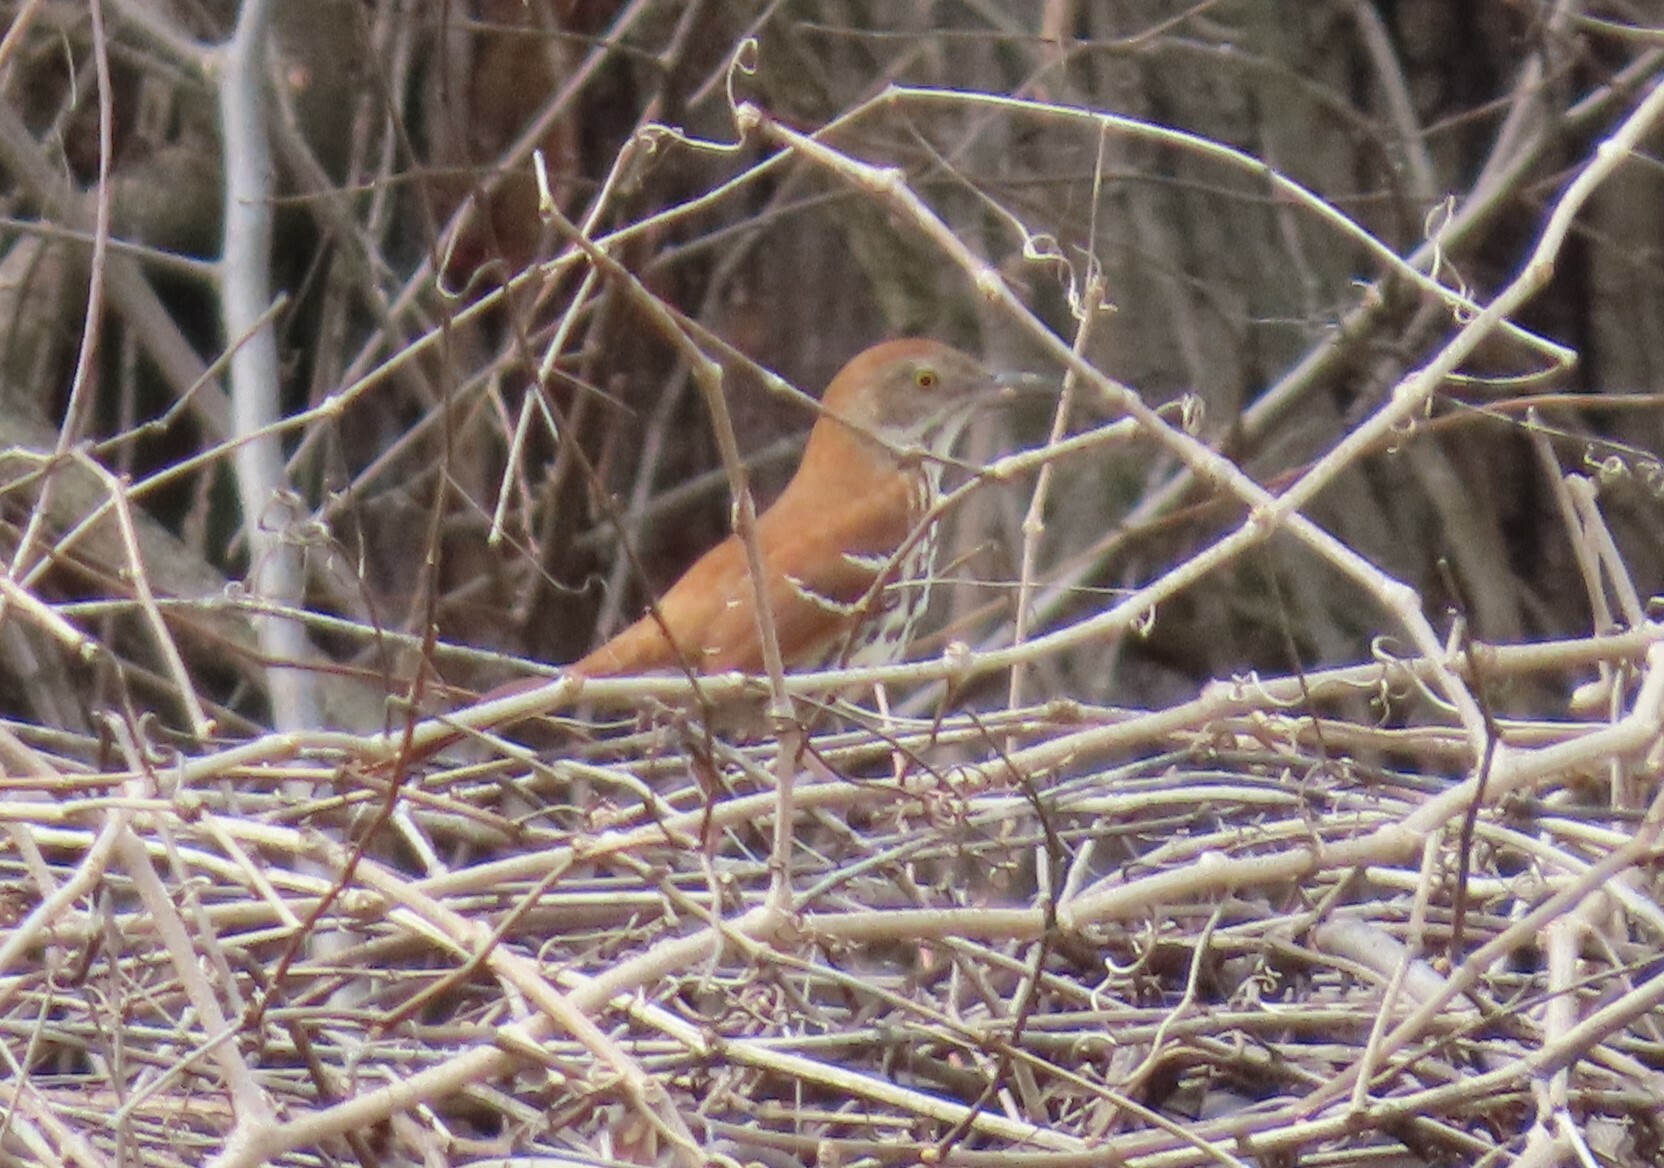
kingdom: Animalia
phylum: Chordata
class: Aves
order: Passeriformes
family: Mimidae
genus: Toxostoma
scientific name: Toxostoma rufum
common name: Brown thrasher
